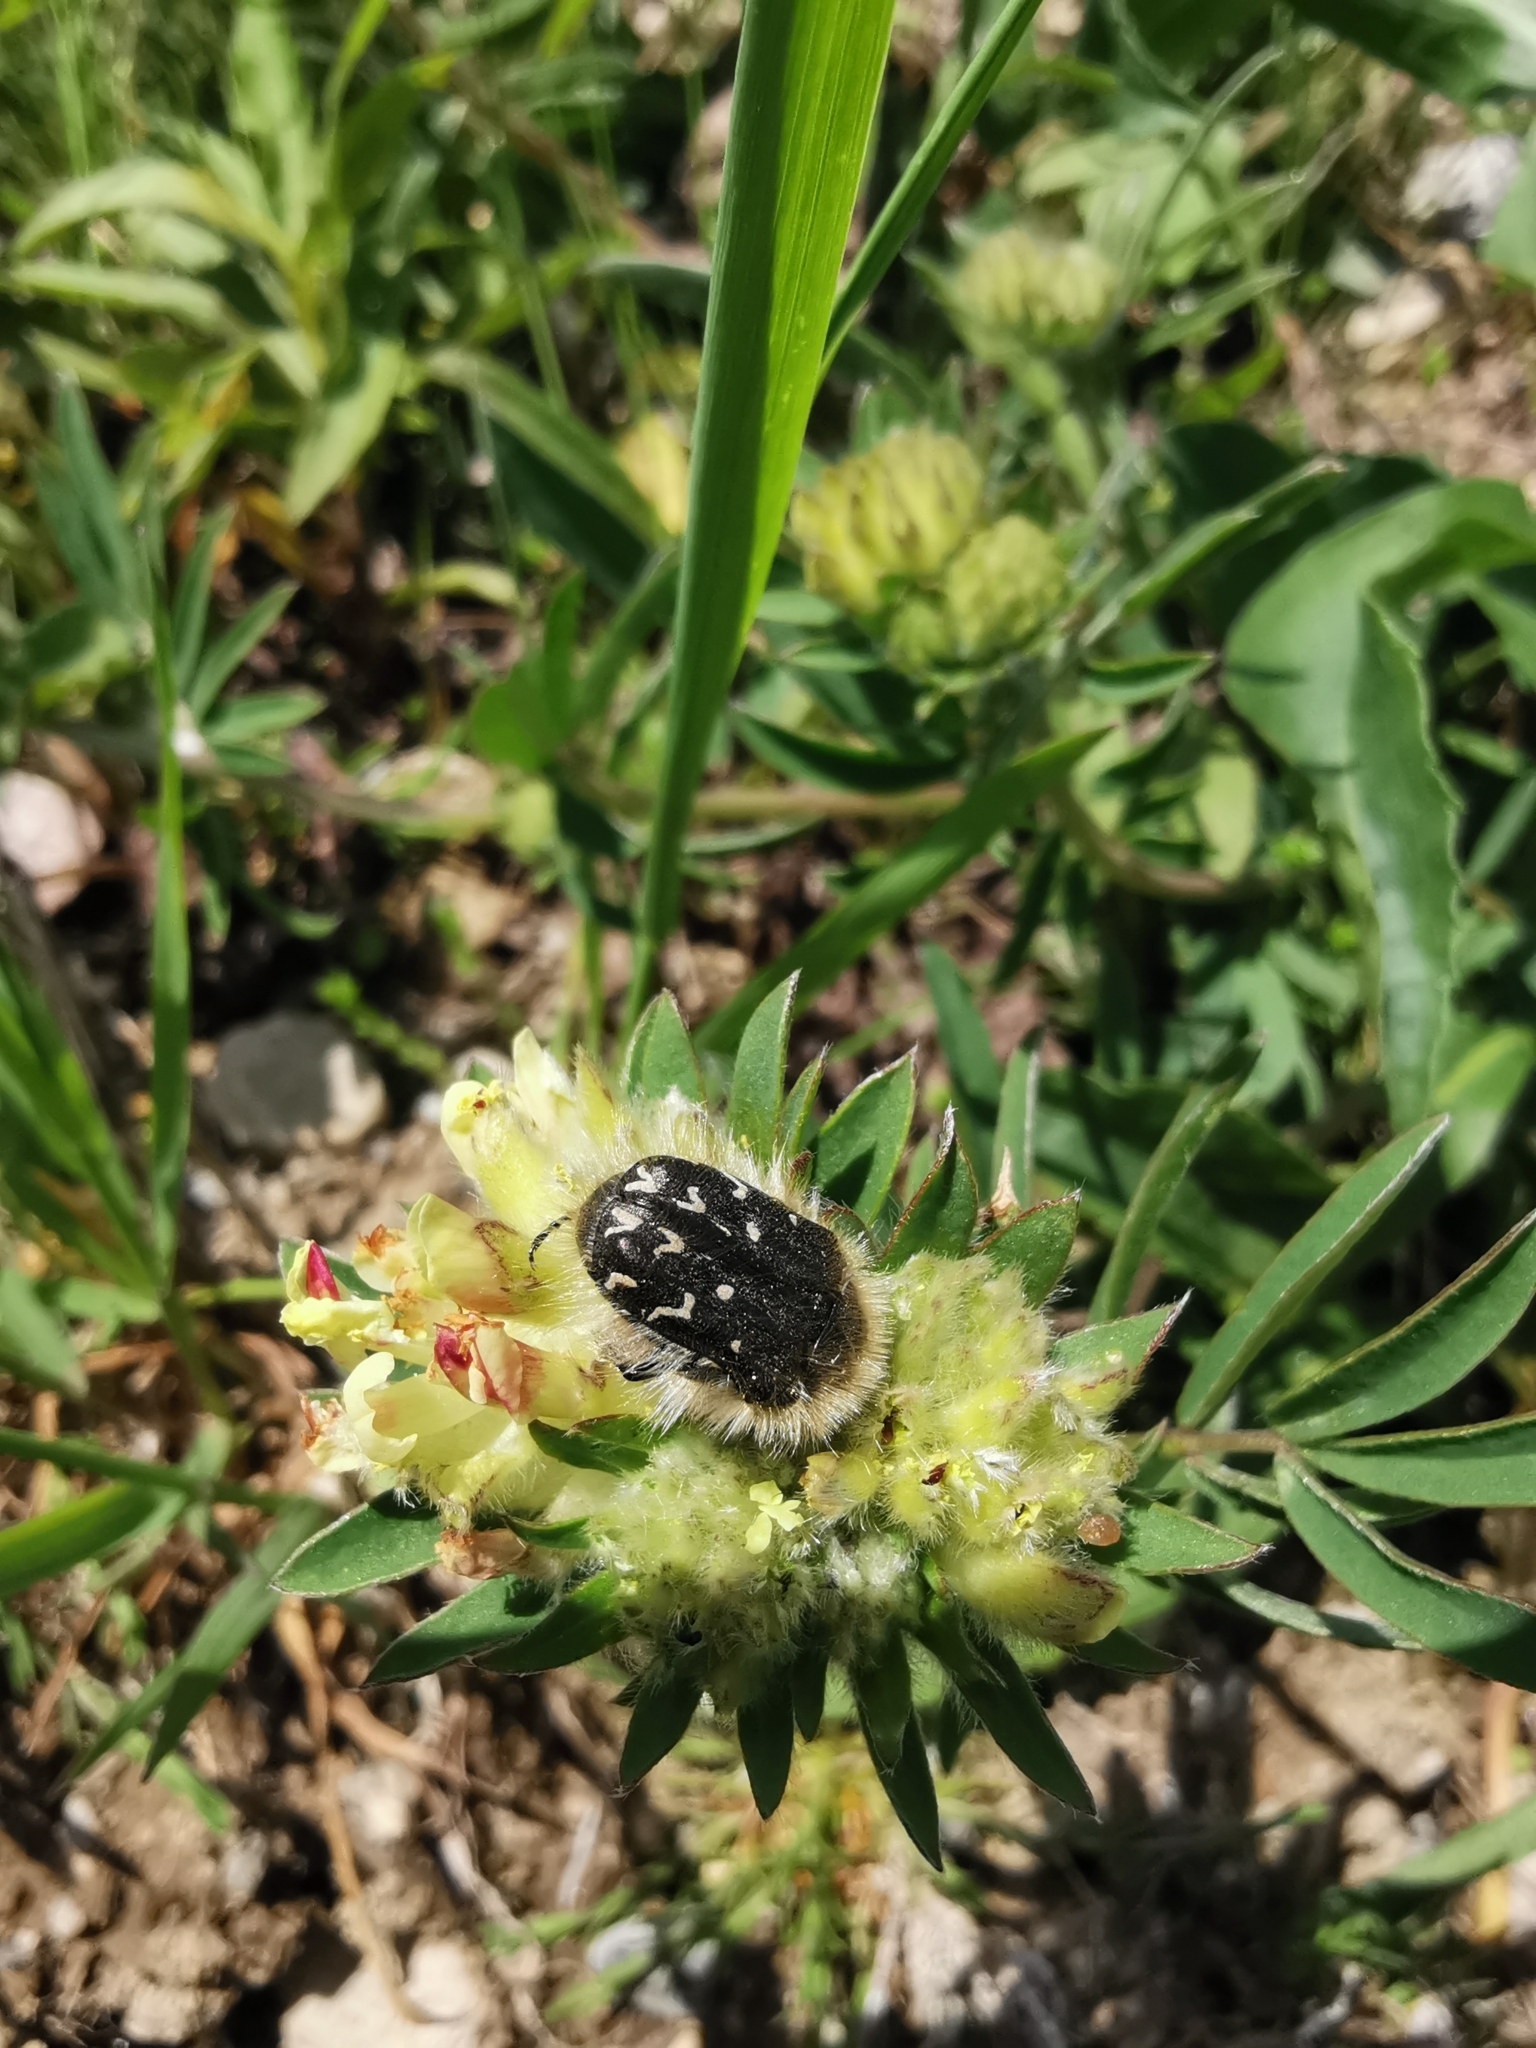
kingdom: Animalia
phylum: Arthropoda
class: Insecta
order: Coleoptera
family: Scarabaeidae
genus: Tropinota
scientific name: Tropinota hirta
